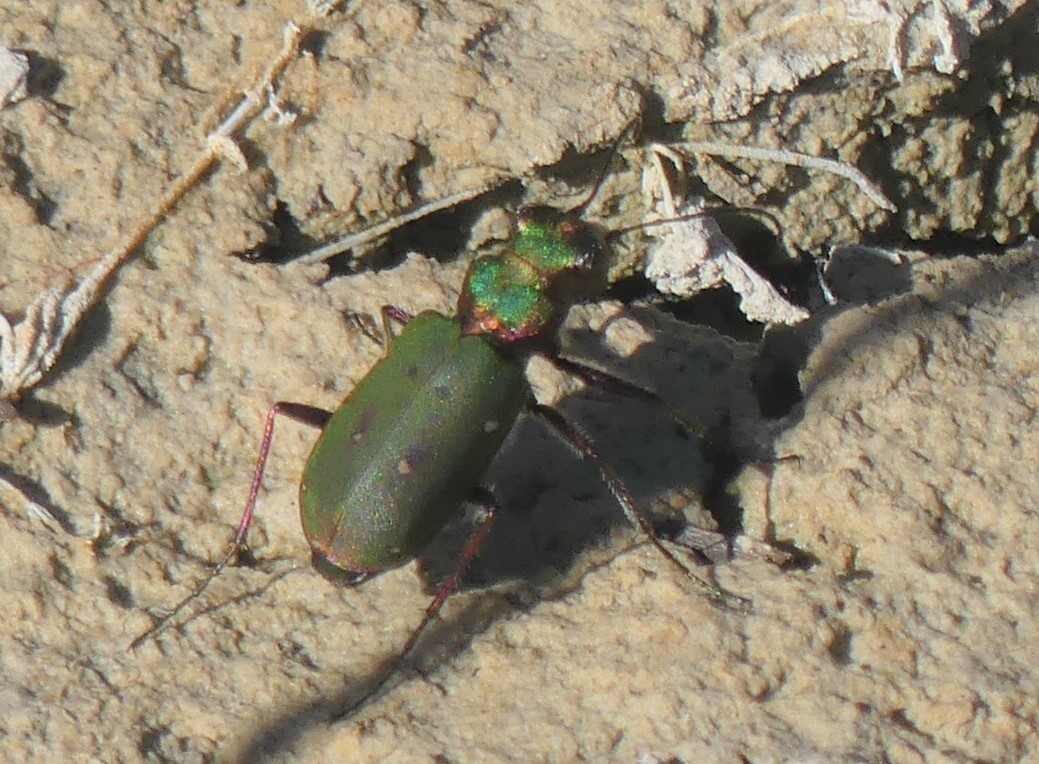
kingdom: Animalia
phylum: Arthropoda
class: Insecta
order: Coleoptera
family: Carabidae
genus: Cicindela
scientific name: Cicindela campestris
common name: Common tiger beetle
